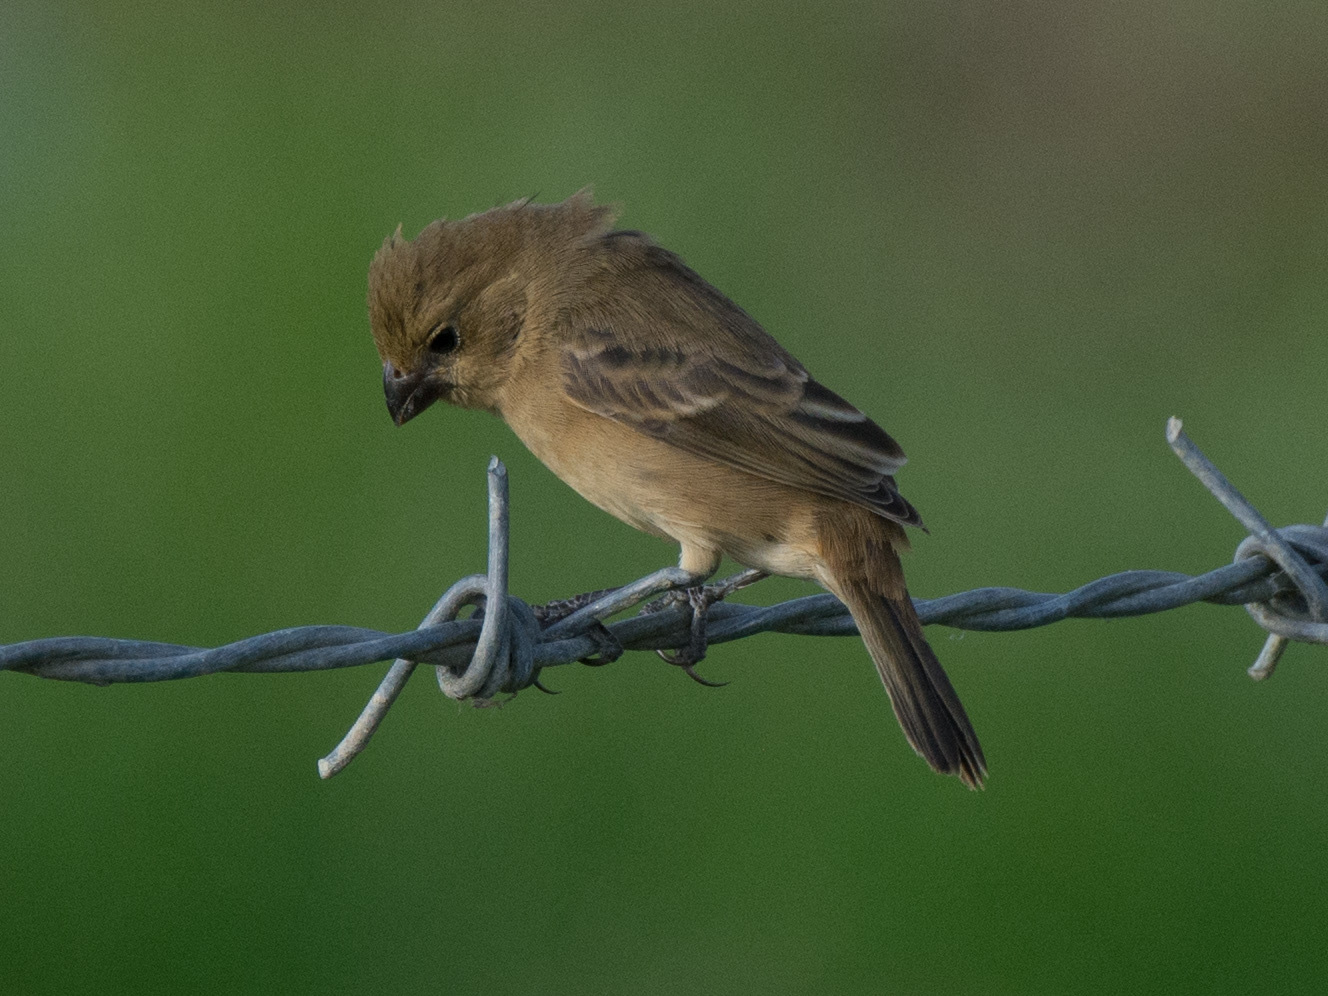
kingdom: Animalia
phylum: Chordata
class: Aves
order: Passeriformes
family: Thraupidae
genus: Sporophila
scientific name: Sporophila minuta
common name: Ruddy-breasted seedeater
